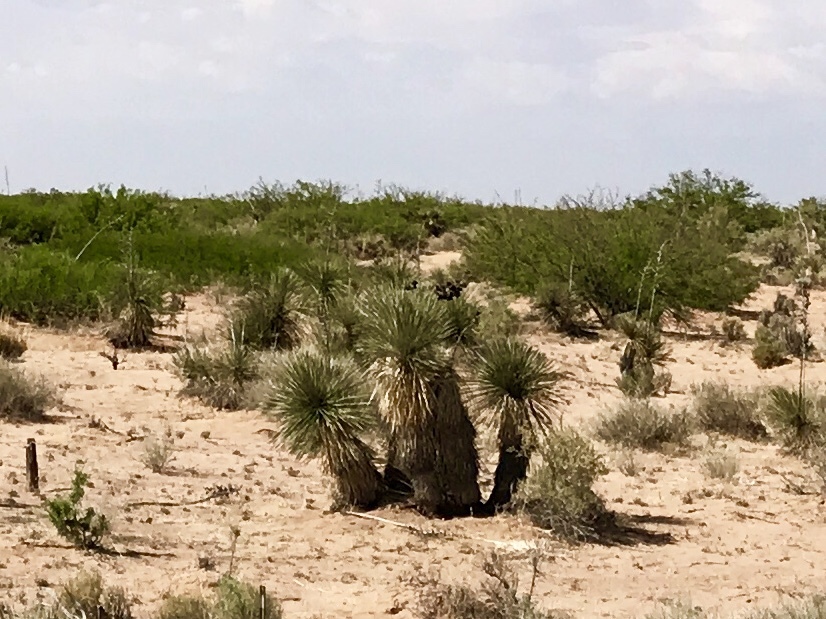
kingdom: Plantae
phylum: Tracheophyta
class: Liliopsida
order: Asparagales
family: Asparagaceae
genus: Yucca
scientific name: Yucca elata
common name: Palmella
